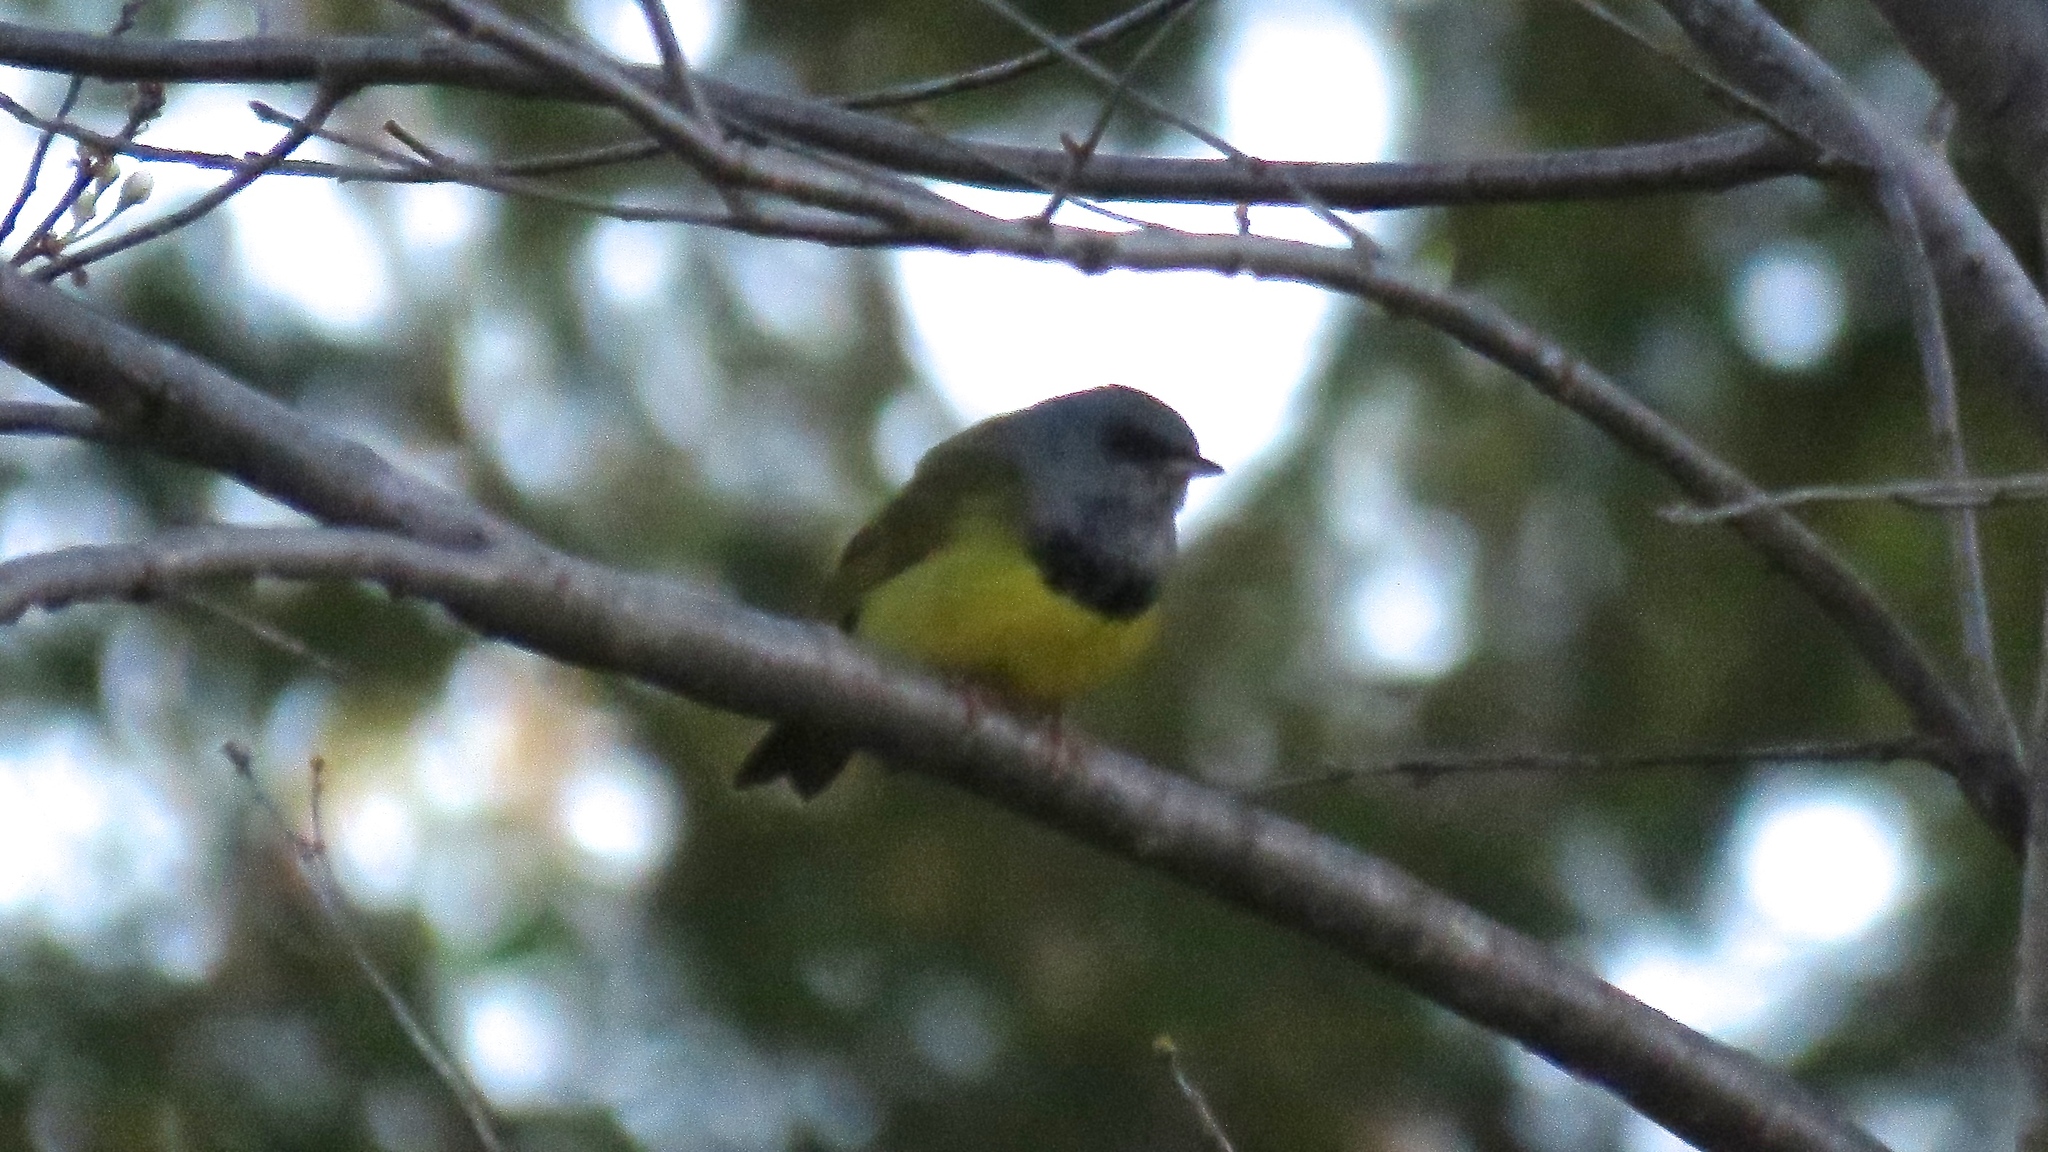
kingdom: Animalia
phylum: Chordata
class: Aves
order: Passeriformes
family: Parulidae
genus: Geothlypis
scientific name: Geothlypis philadelphia
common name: Mourning warbler
